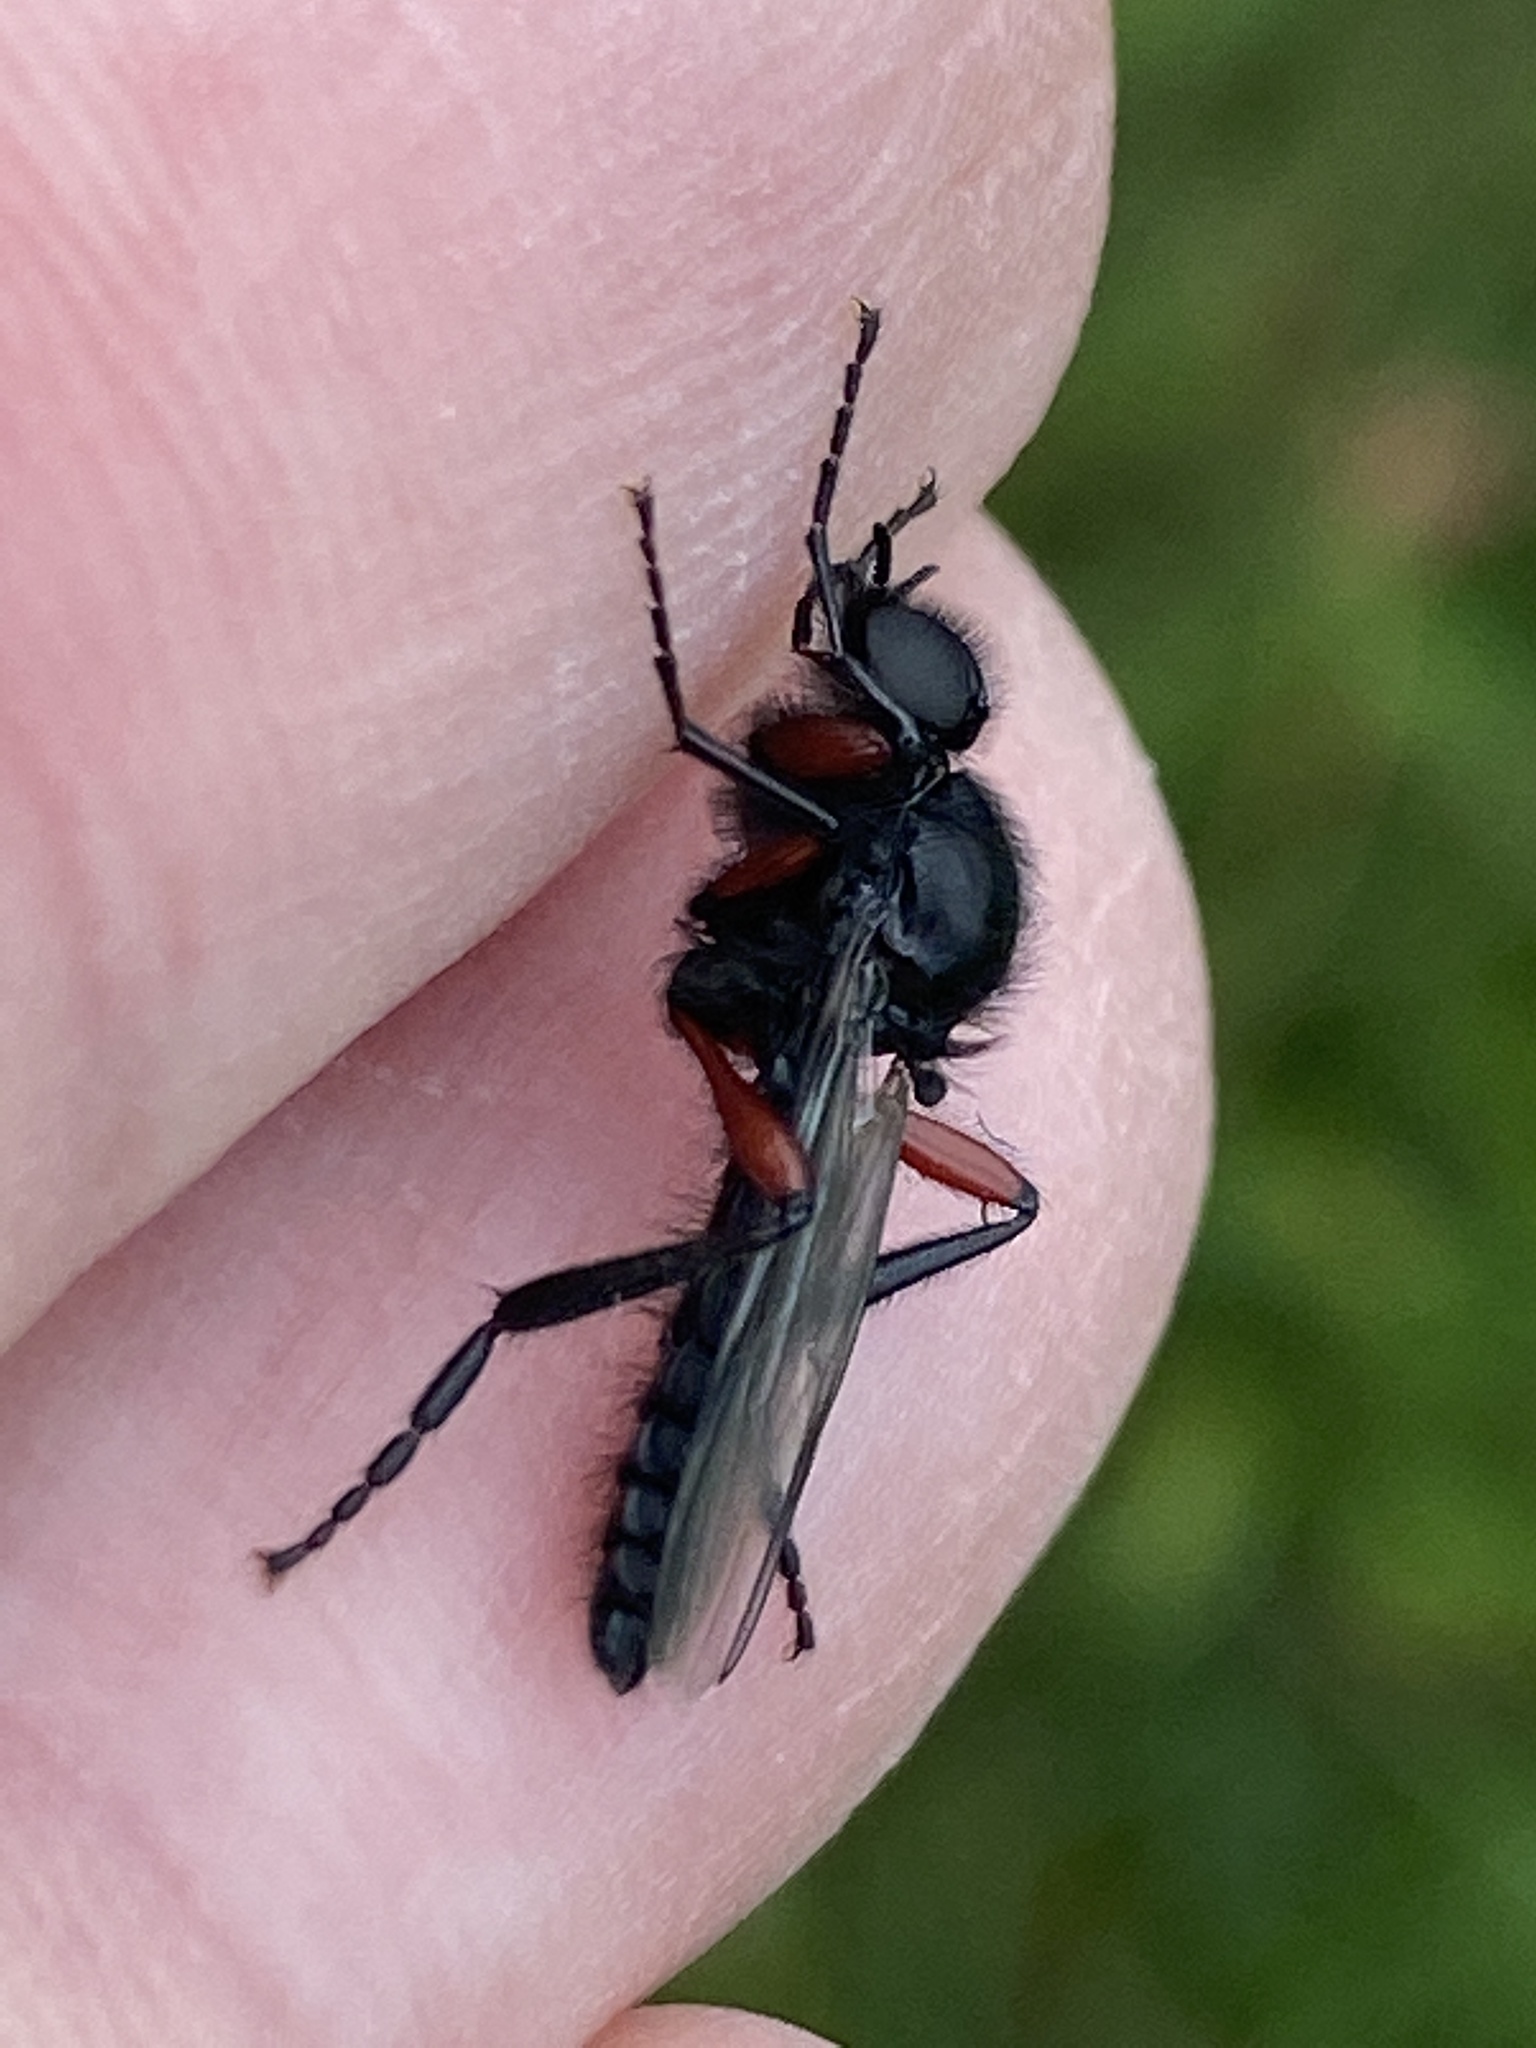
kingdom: Animalia
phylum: Arthropoda
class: Insecta
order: Diptera
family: Bibionidae
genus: Bibio
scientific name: Bibio pomonae
